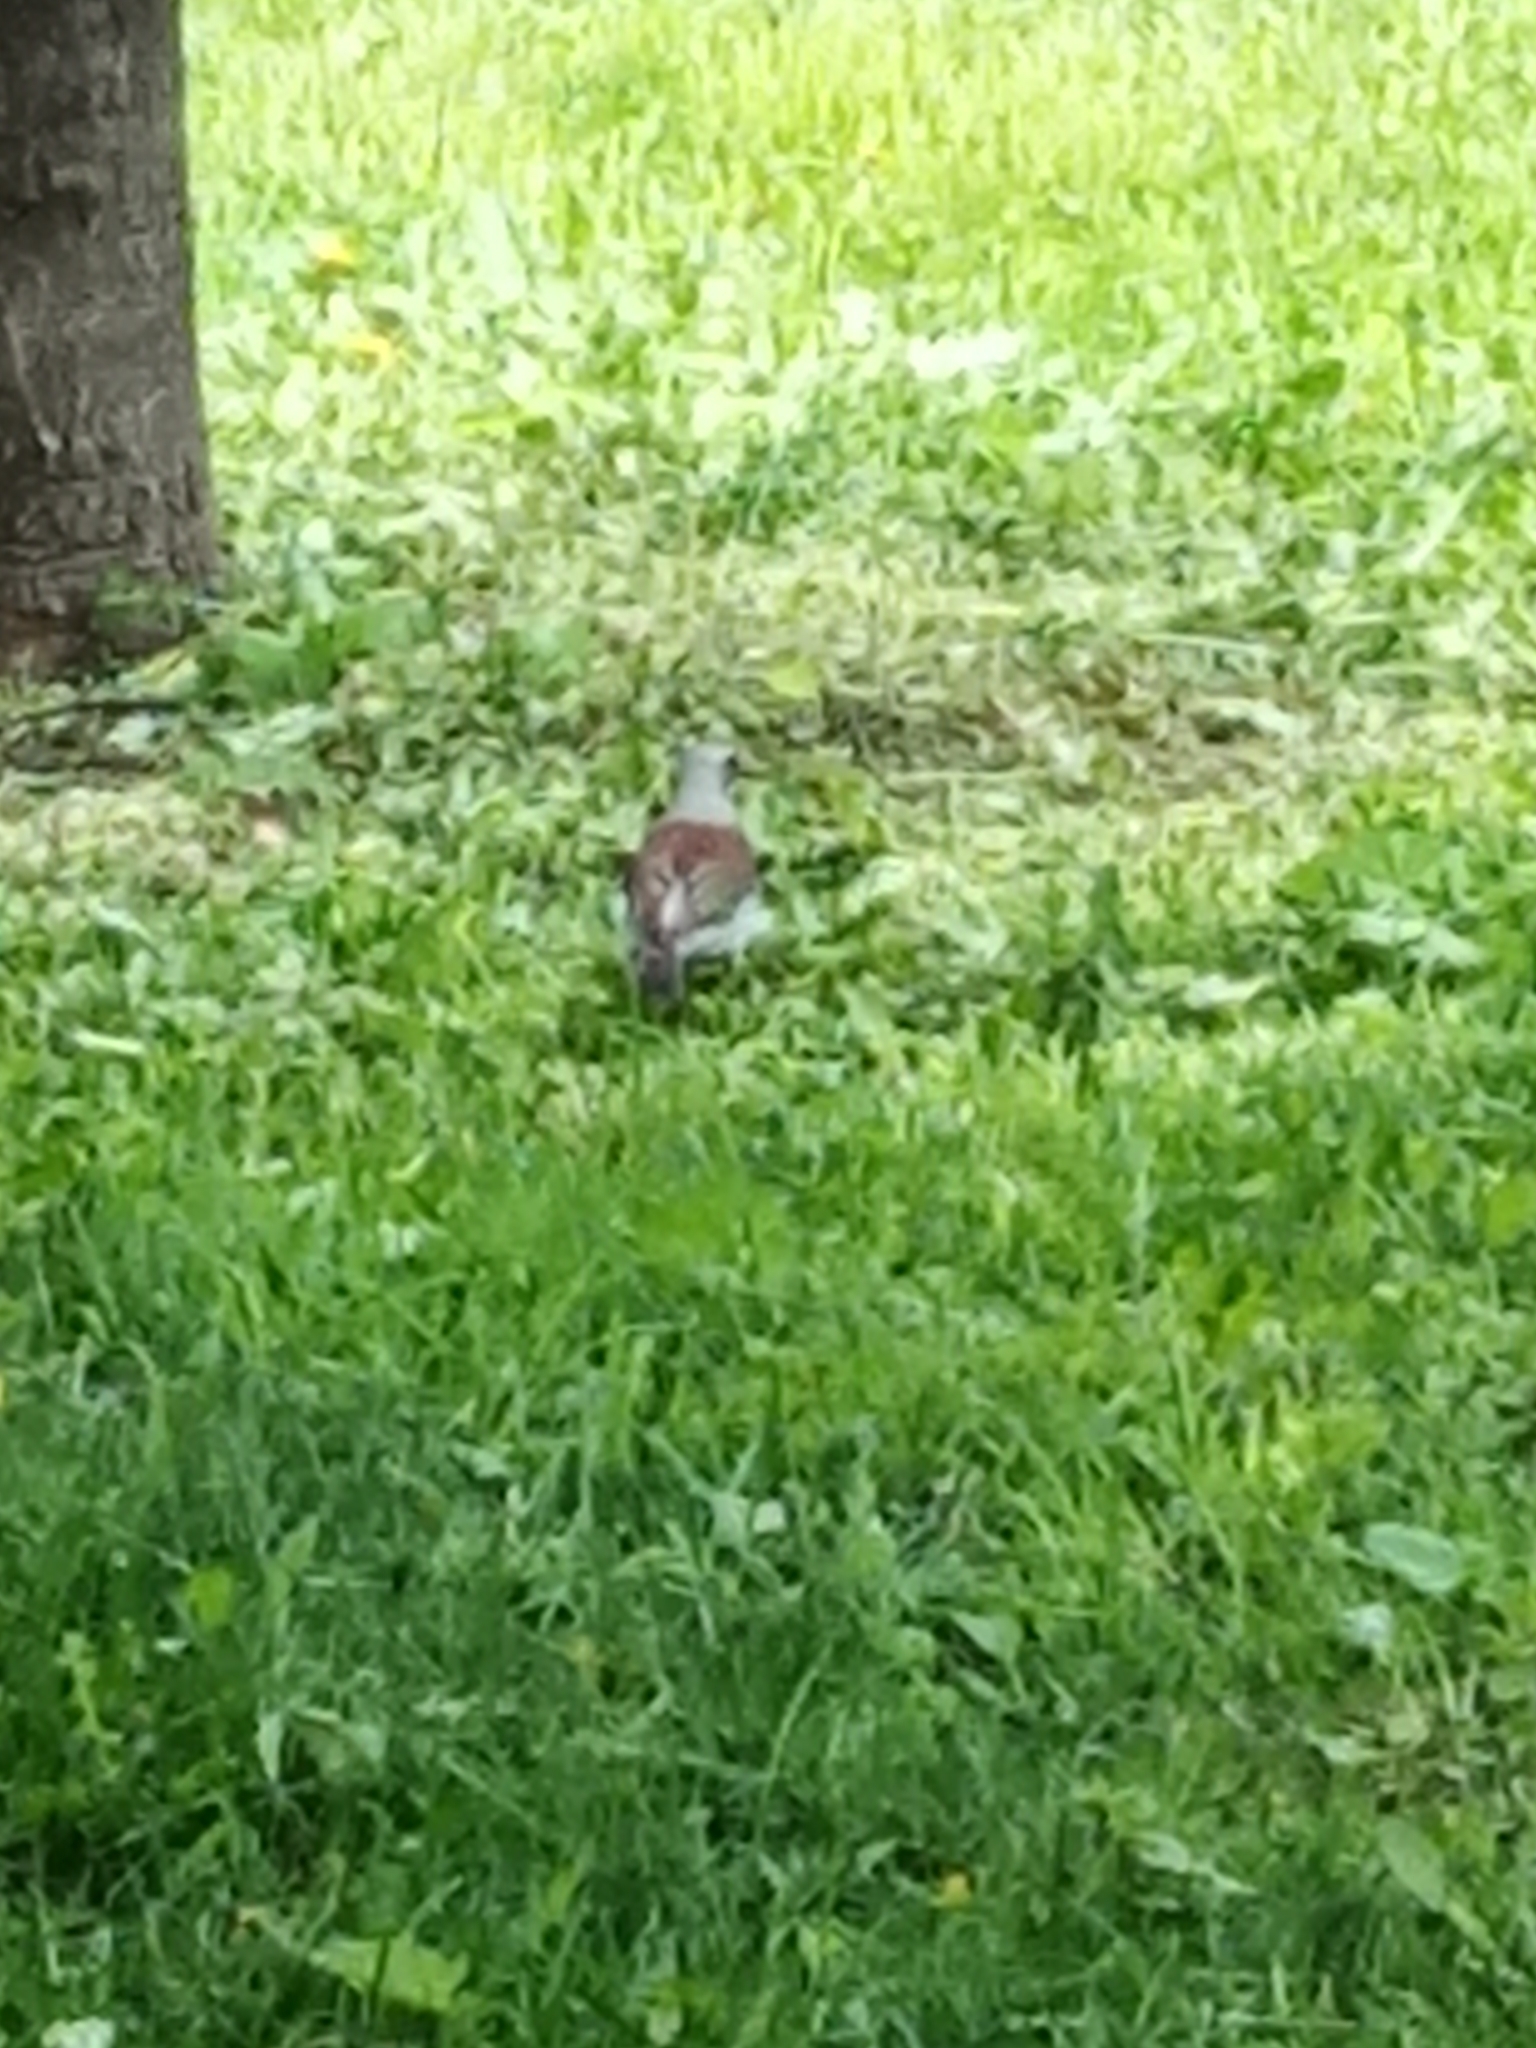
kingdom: Animalia
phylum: Chordata
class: Aves
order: Passeriformes
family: Turdidae
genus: Turdus
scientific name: Turdus pilaris
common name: Fieldfare
